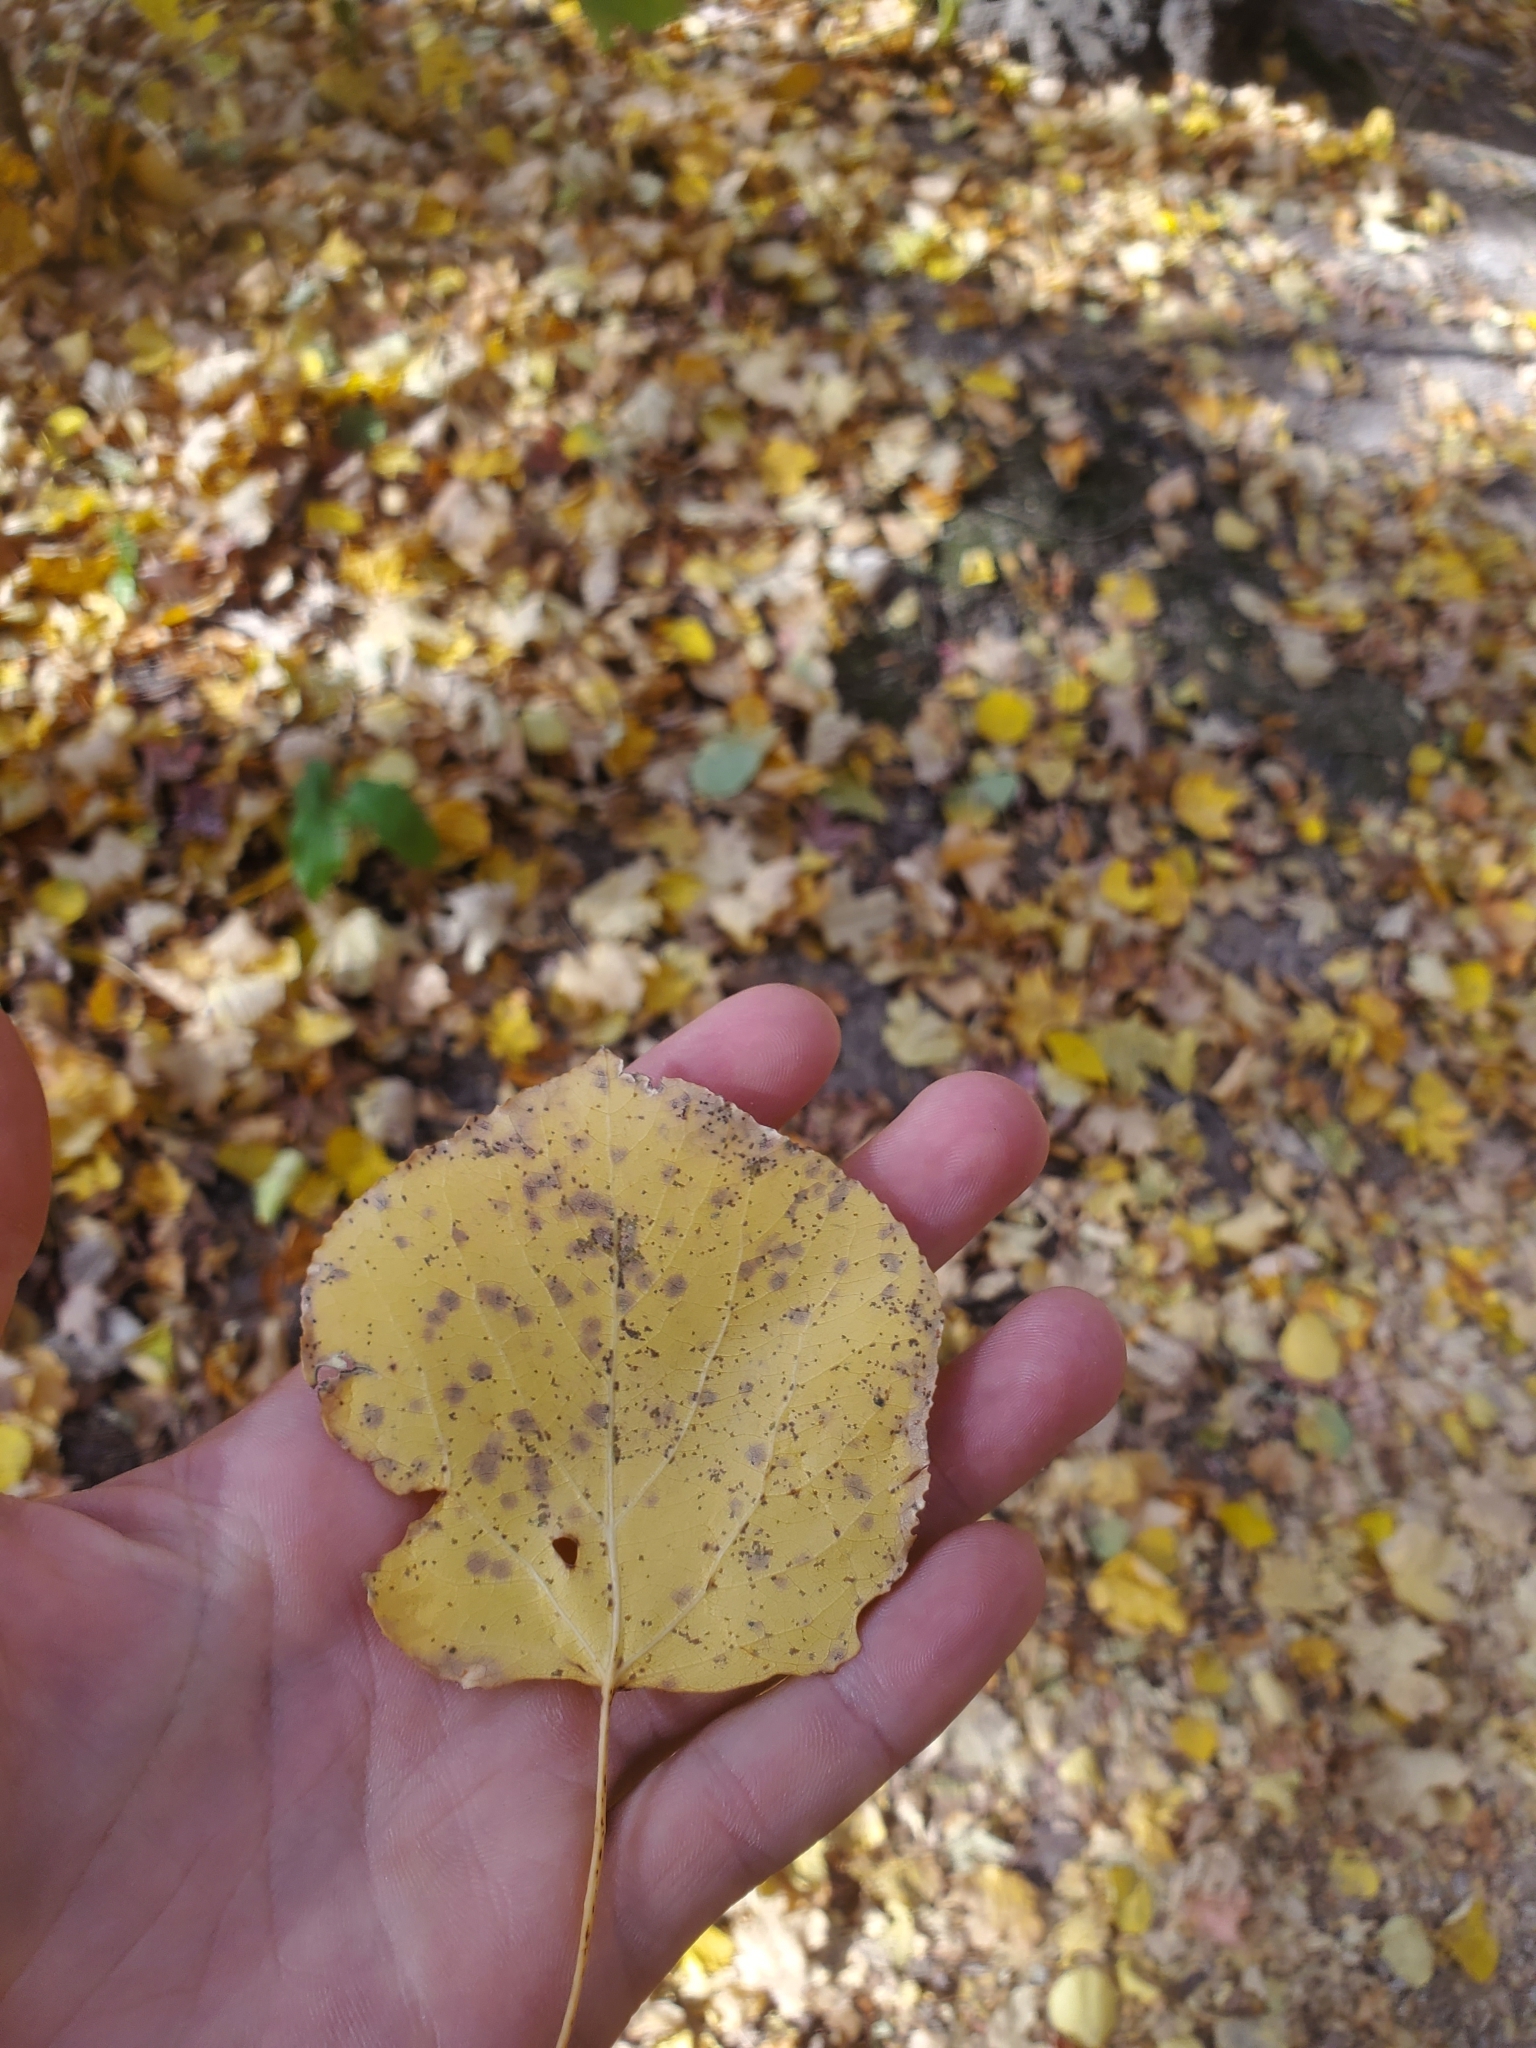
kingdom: Plantae
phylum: Tracheophyta
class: Magnoliopsida
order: Malpighiales
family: Salicaceae
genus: Populus
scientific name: Populus tremuloides
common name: Quaking aspen
